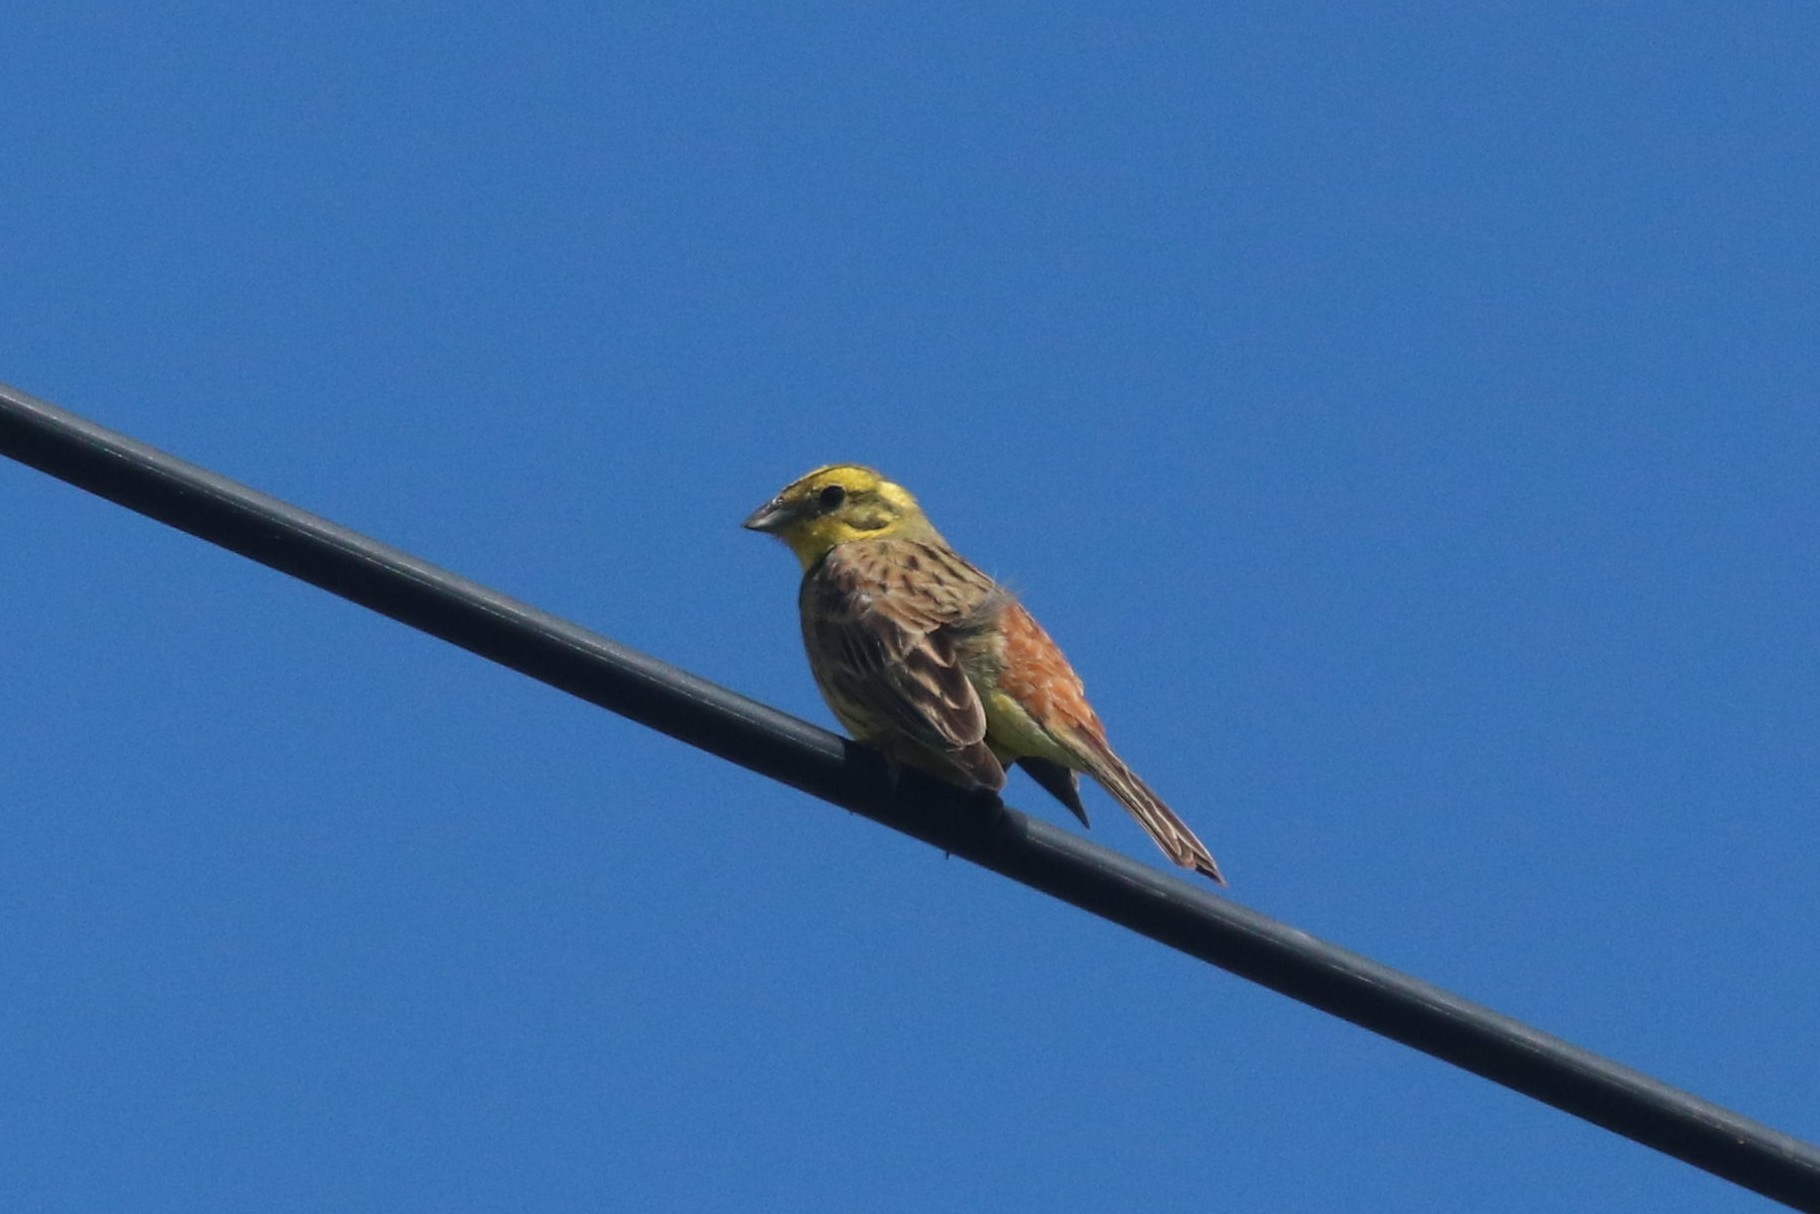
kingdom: Animalia
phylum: Chordata
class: Aves
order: Passeriformes
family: Emberizidae
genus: Emberiza
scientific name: Emberiza citrinella
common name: Yellowhammer
